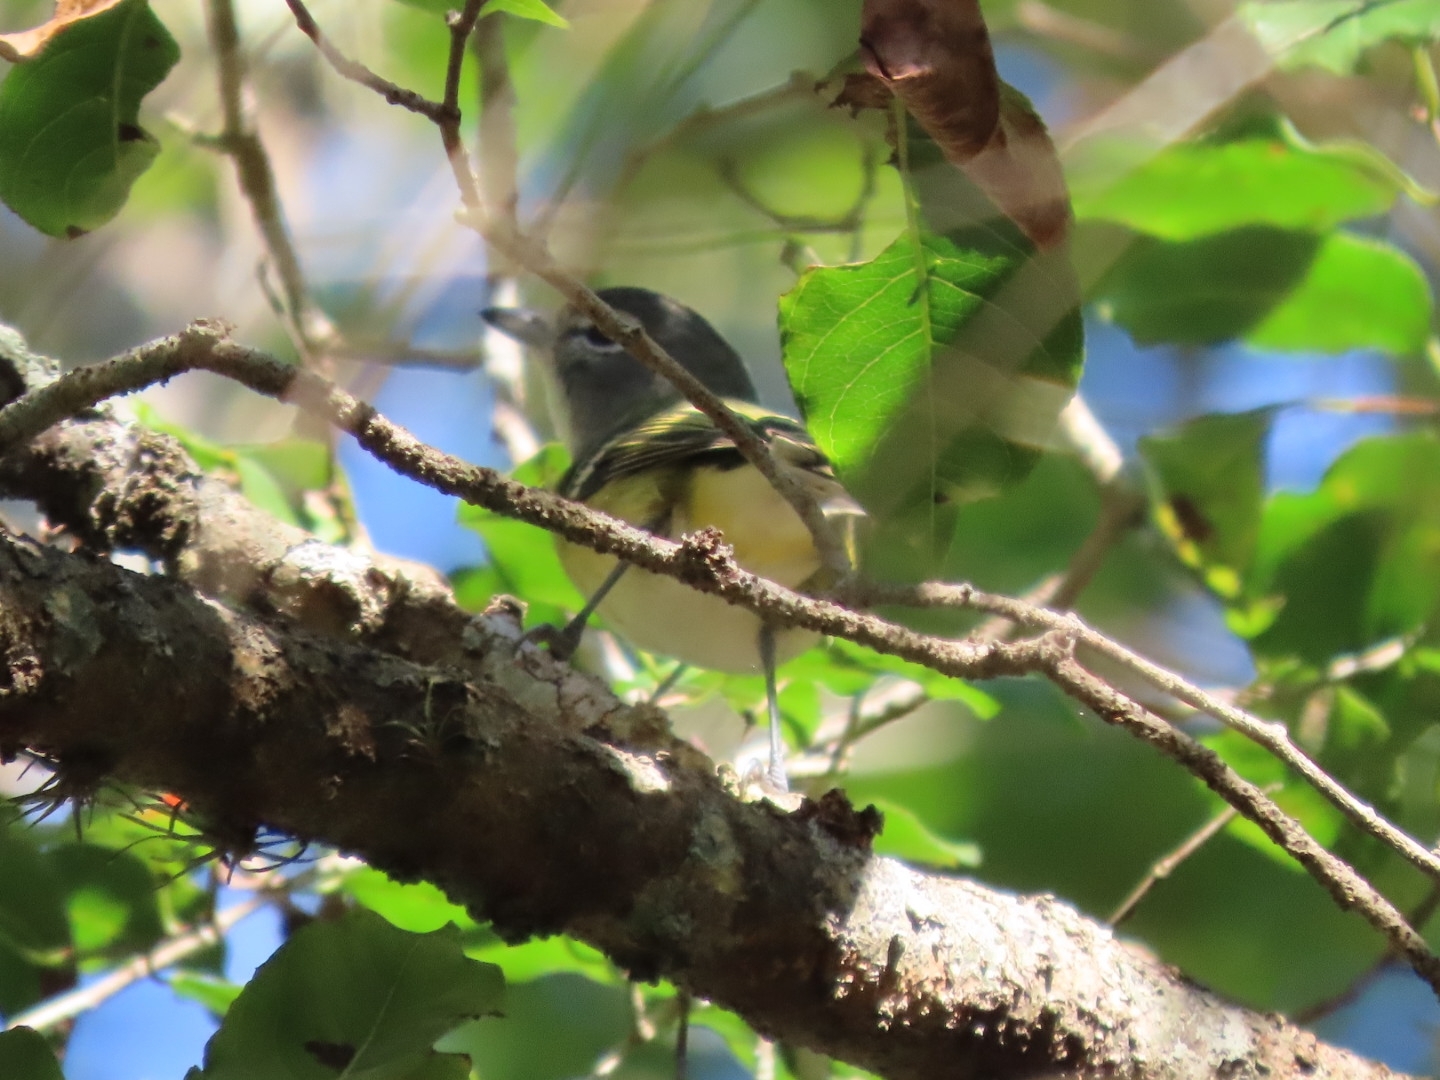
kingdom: Animalia
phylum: Chordata
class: Aves
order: Passeriformes
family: Vireonidae
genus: Vireo
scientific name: Vireo solitarius
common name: Blue-headed vireo
